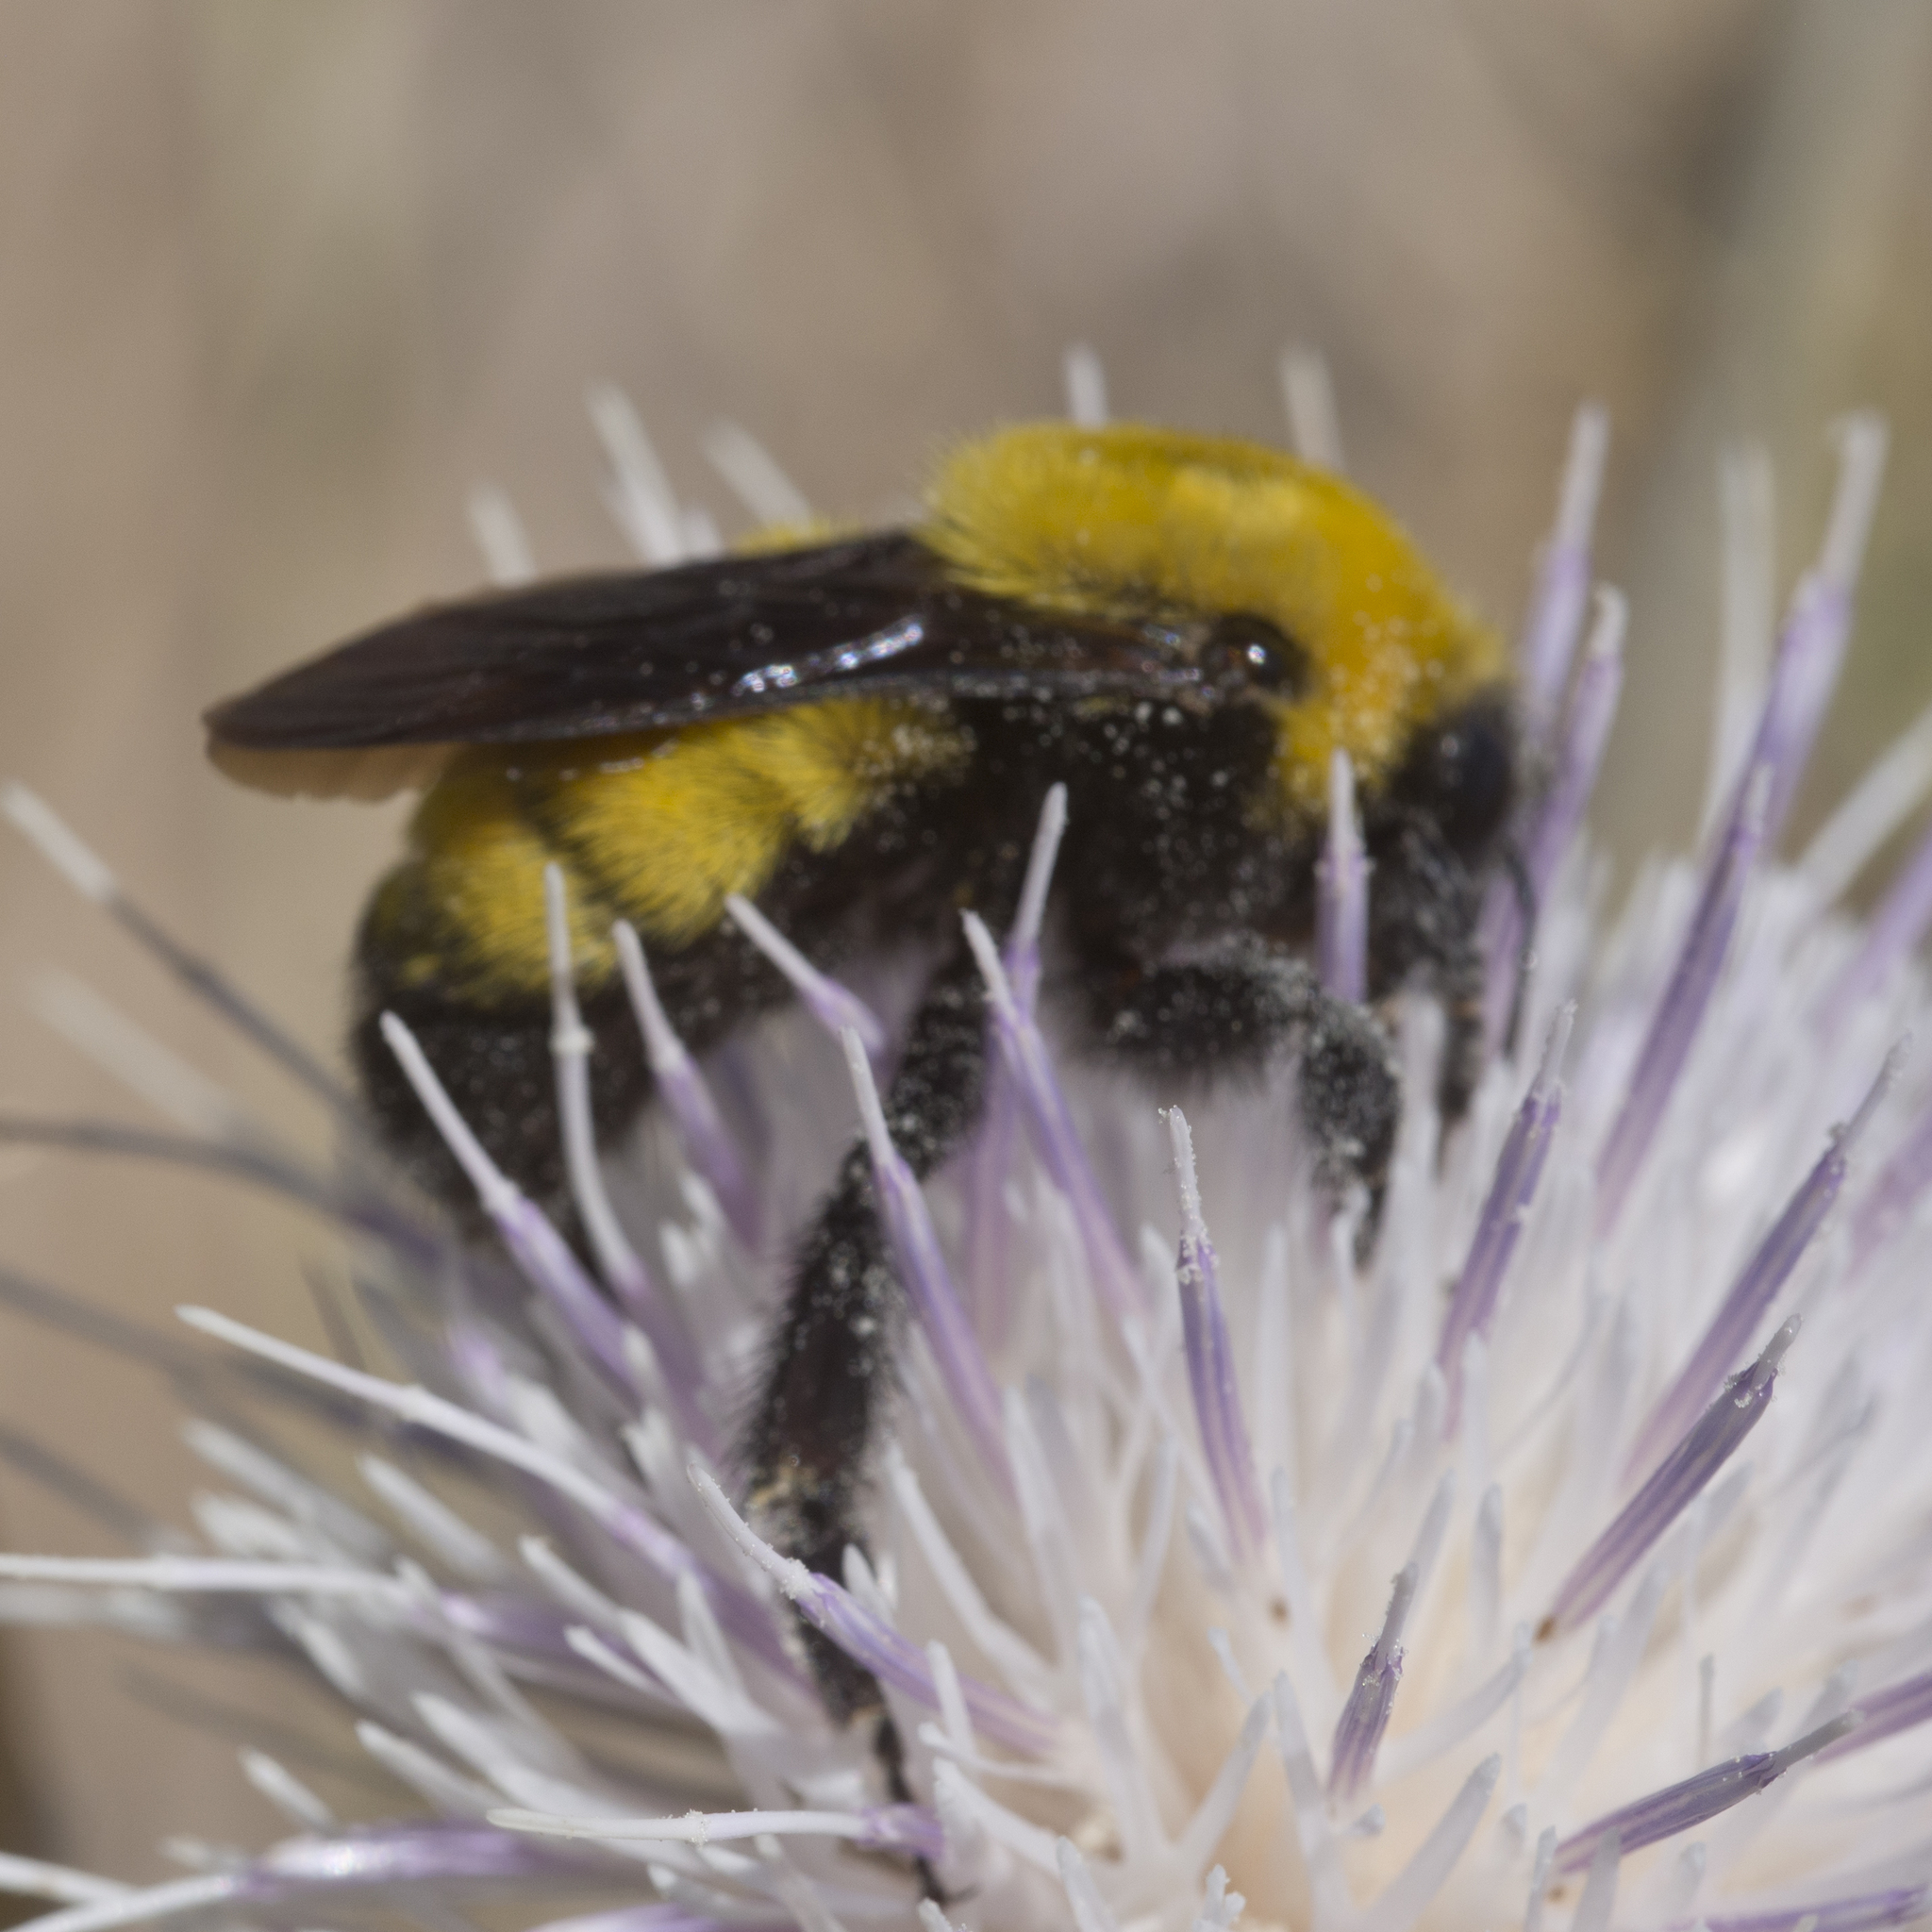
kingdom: Animalia
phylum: Arthropoda
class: Insecta
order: Hymenoptera
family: Apidae
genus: Bombus
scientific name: Bombus morrisoni
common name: Morrison bumble bee
